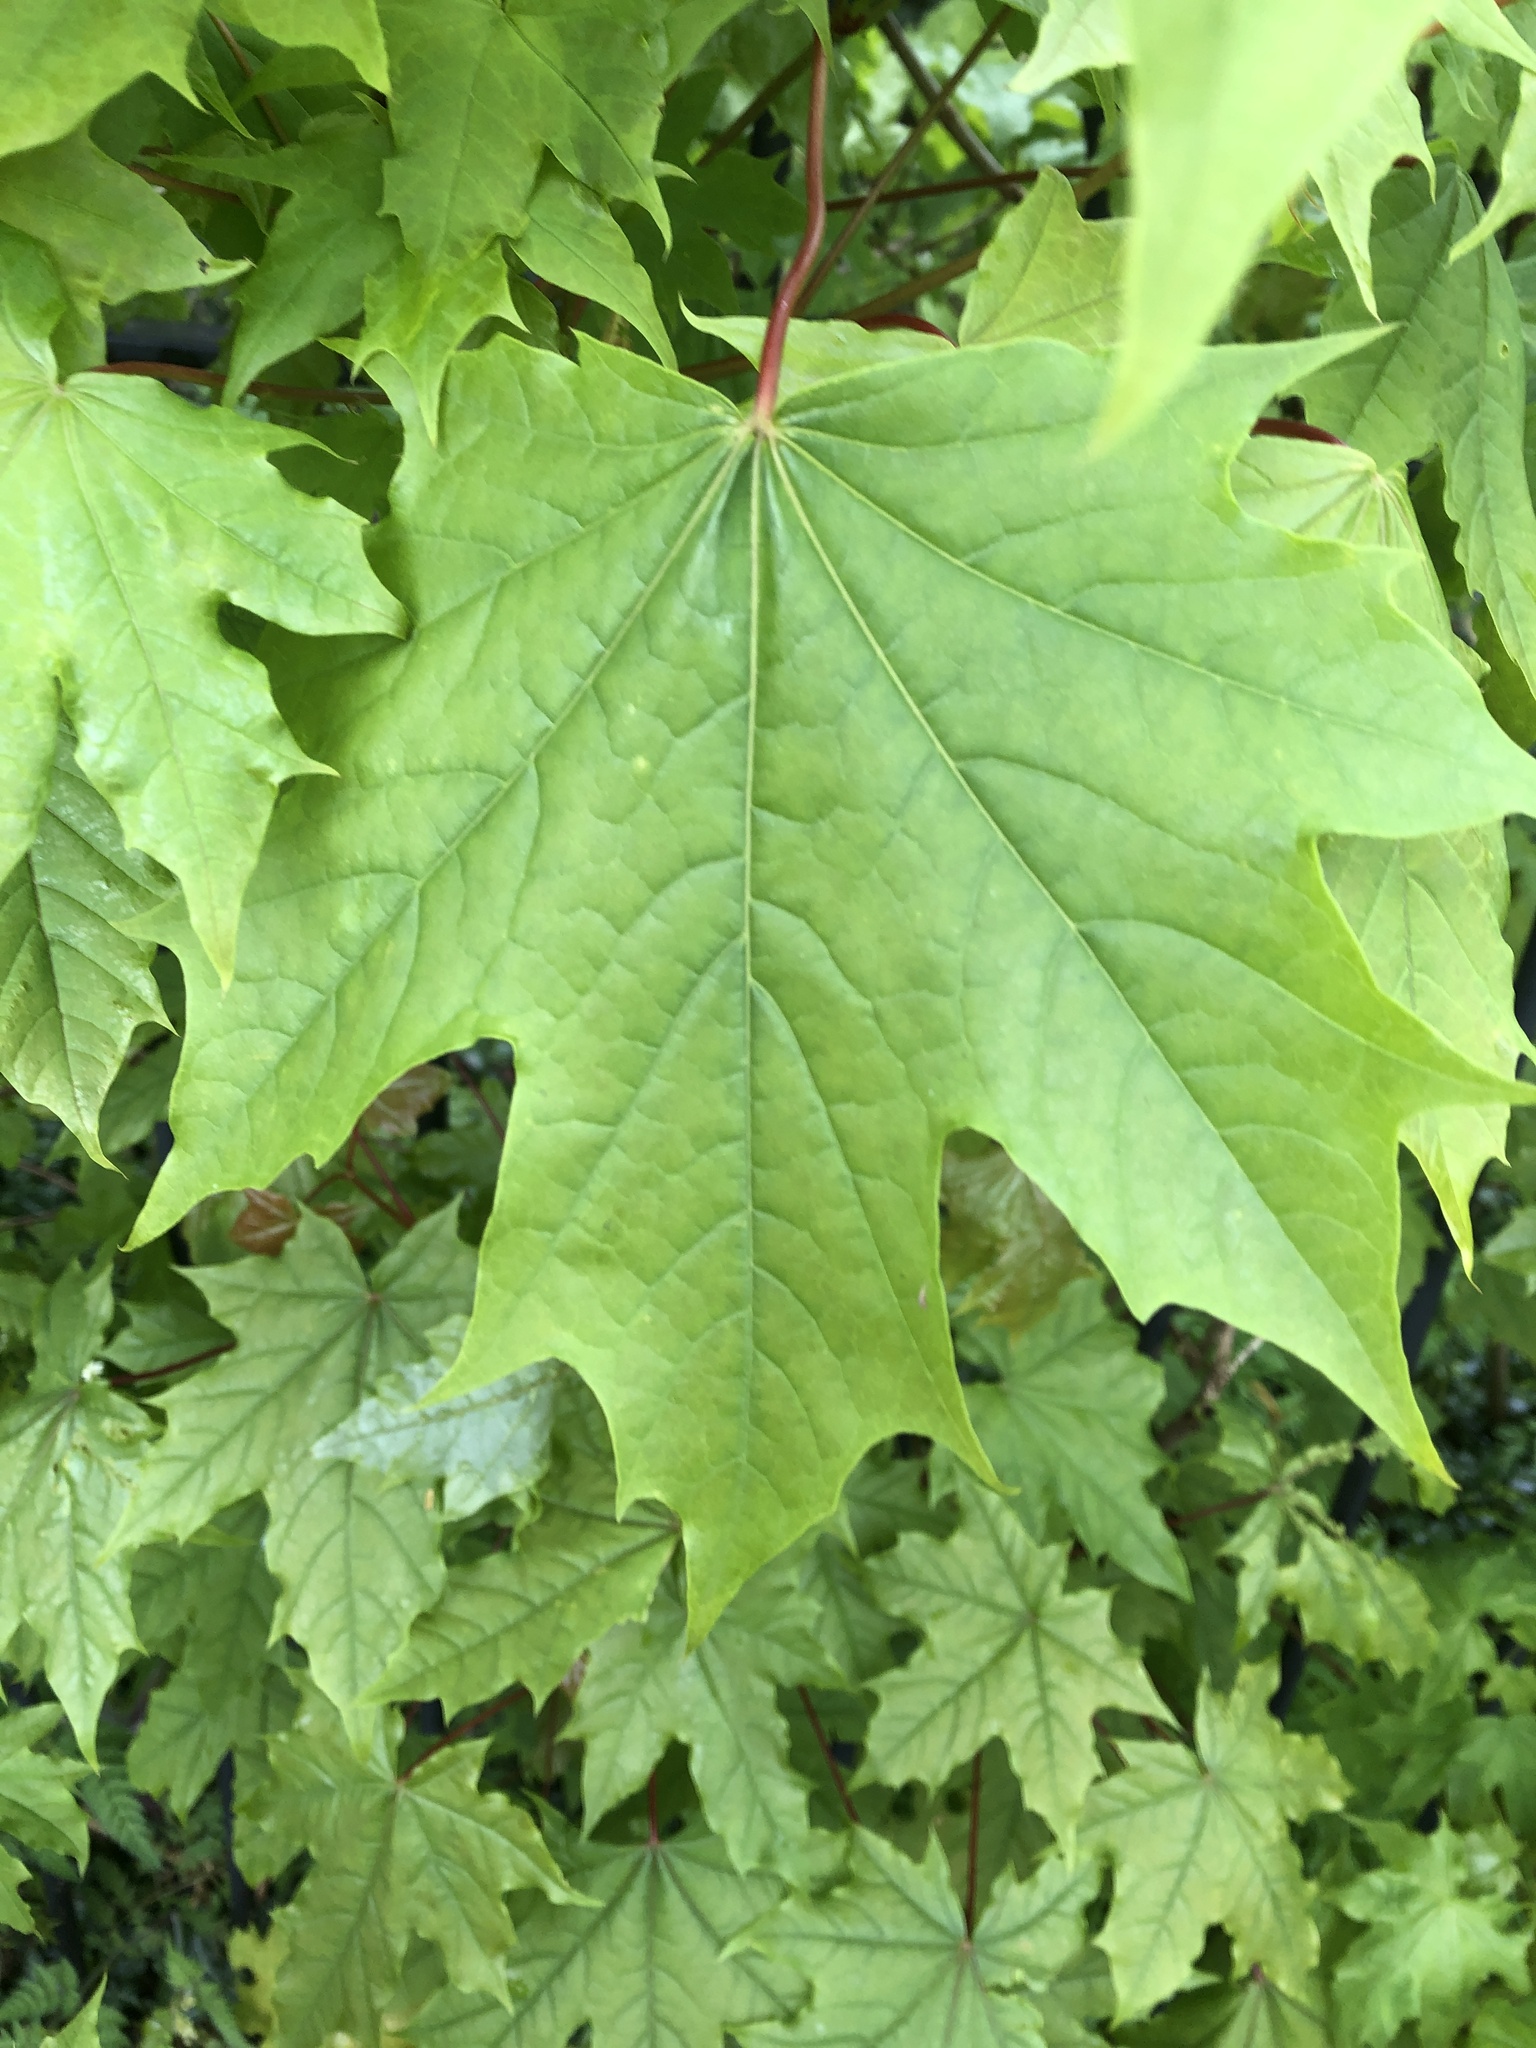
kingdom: Plantae
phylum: Tracheophyta
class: Magnoliopsida
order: Sapindales
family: Sapindaceae
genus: Acer
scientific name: Acer platanoides
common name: Norway maple
